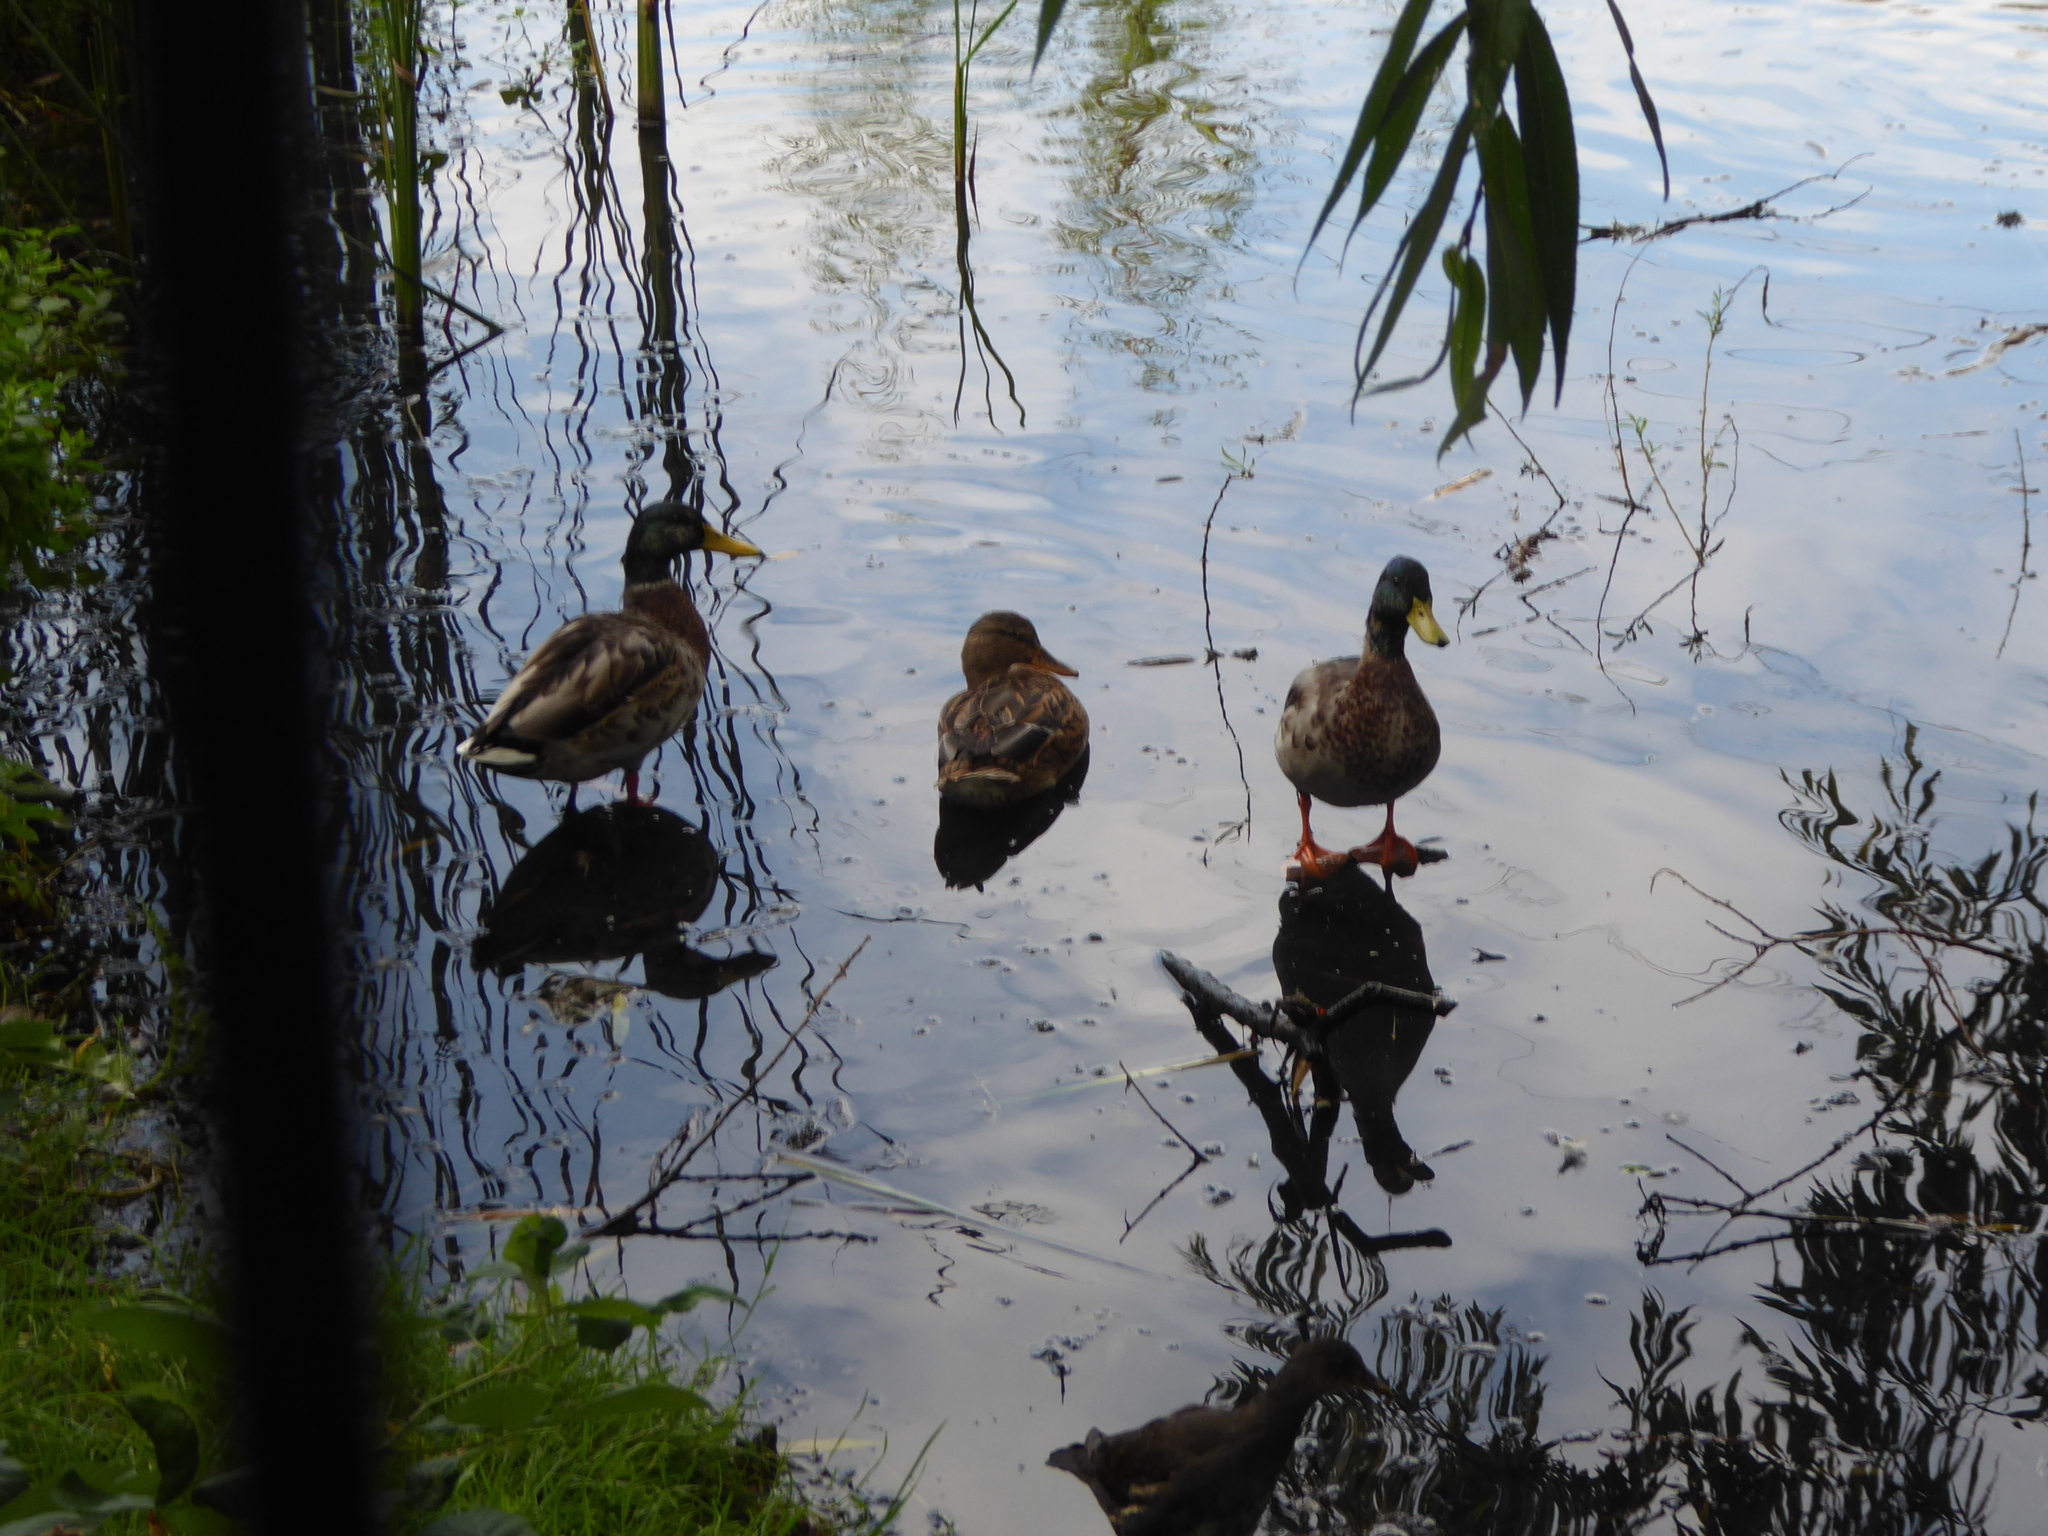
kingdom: Animalia
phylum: Chordata
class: Aves
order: Anseriformes
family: Anatidae
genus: Anas
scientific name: Anas platyrhynchos
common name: Mallard
